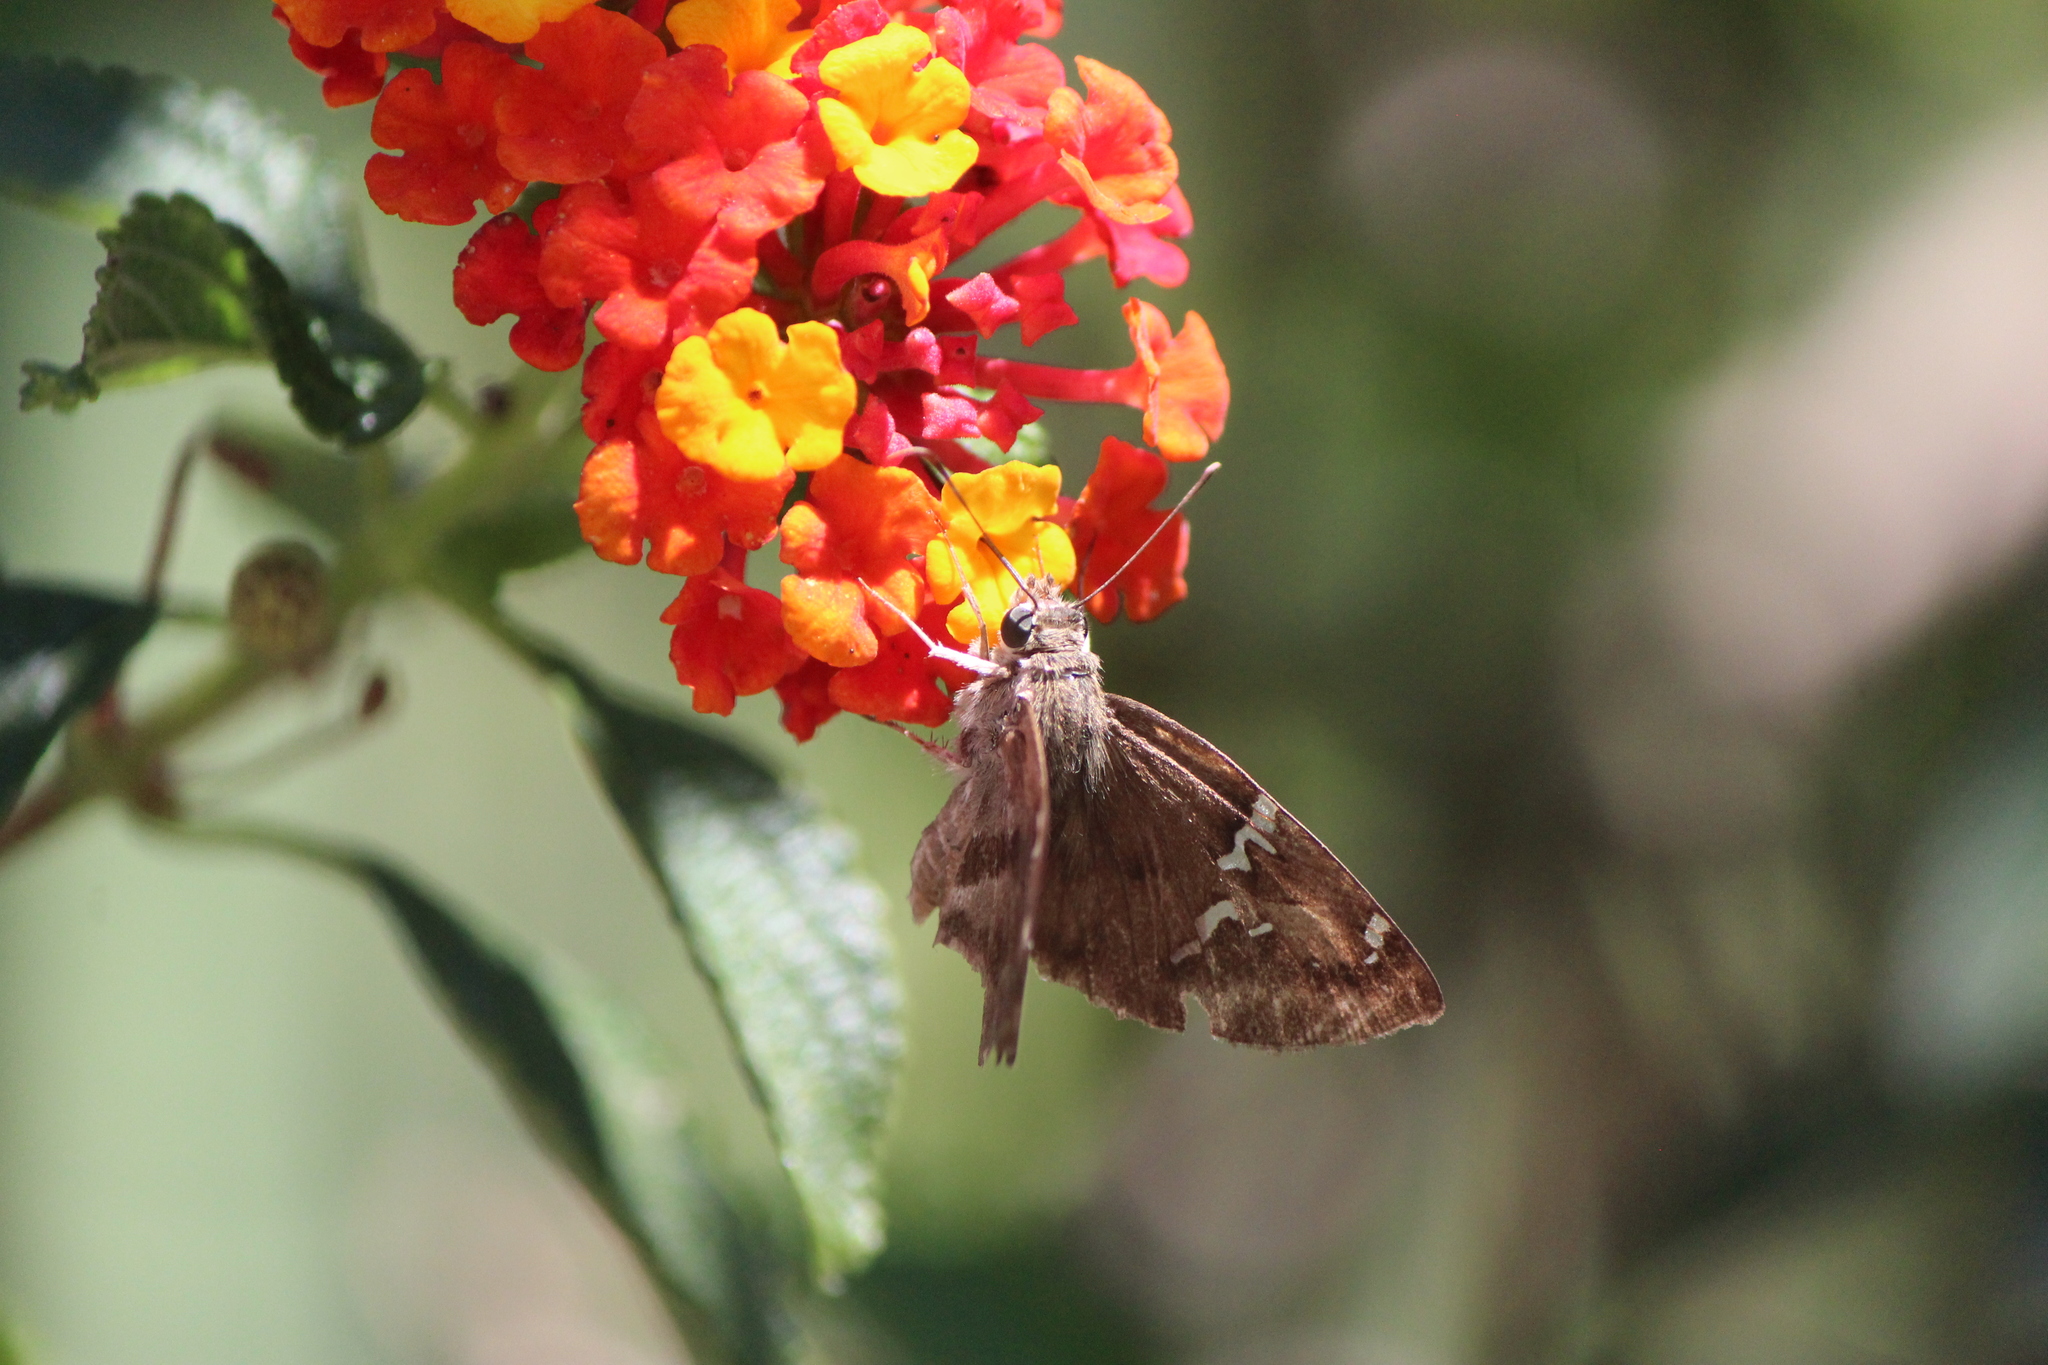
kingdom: Animalia
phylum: Arthropoda
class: Insecta
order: Lepidoptera
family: Hesperiidae
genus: Autochton
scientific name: Autochton potrillo
